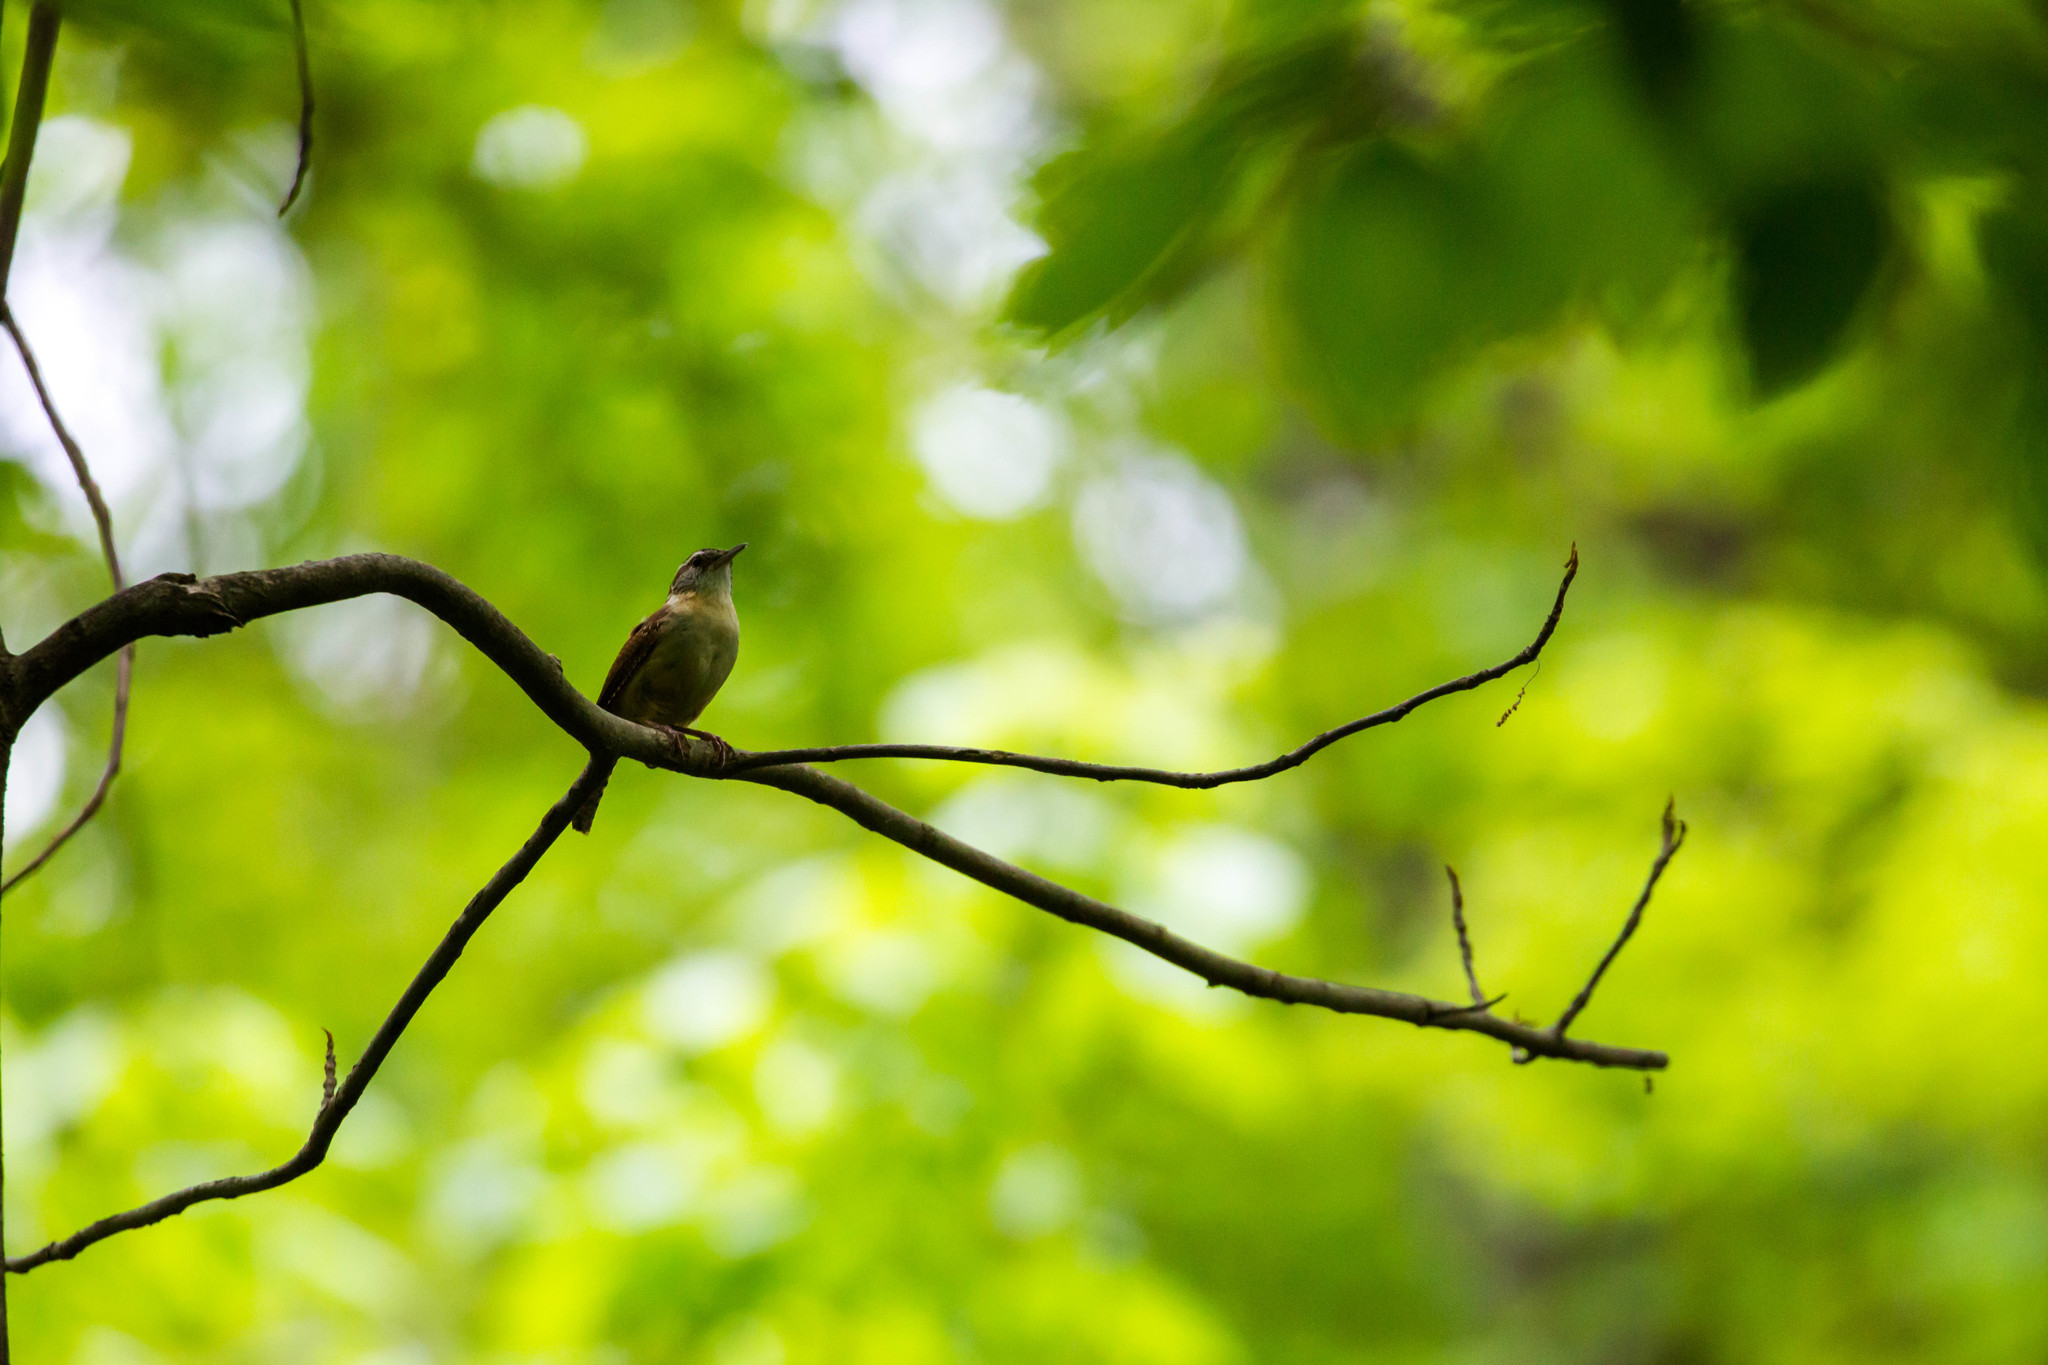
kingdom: Animalia
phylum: Chordata
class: Aves
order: Passeriformes
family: Troglodytidae
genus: Thryothorus
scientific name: Thryothorus ludovicianus
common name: Carolina wren
